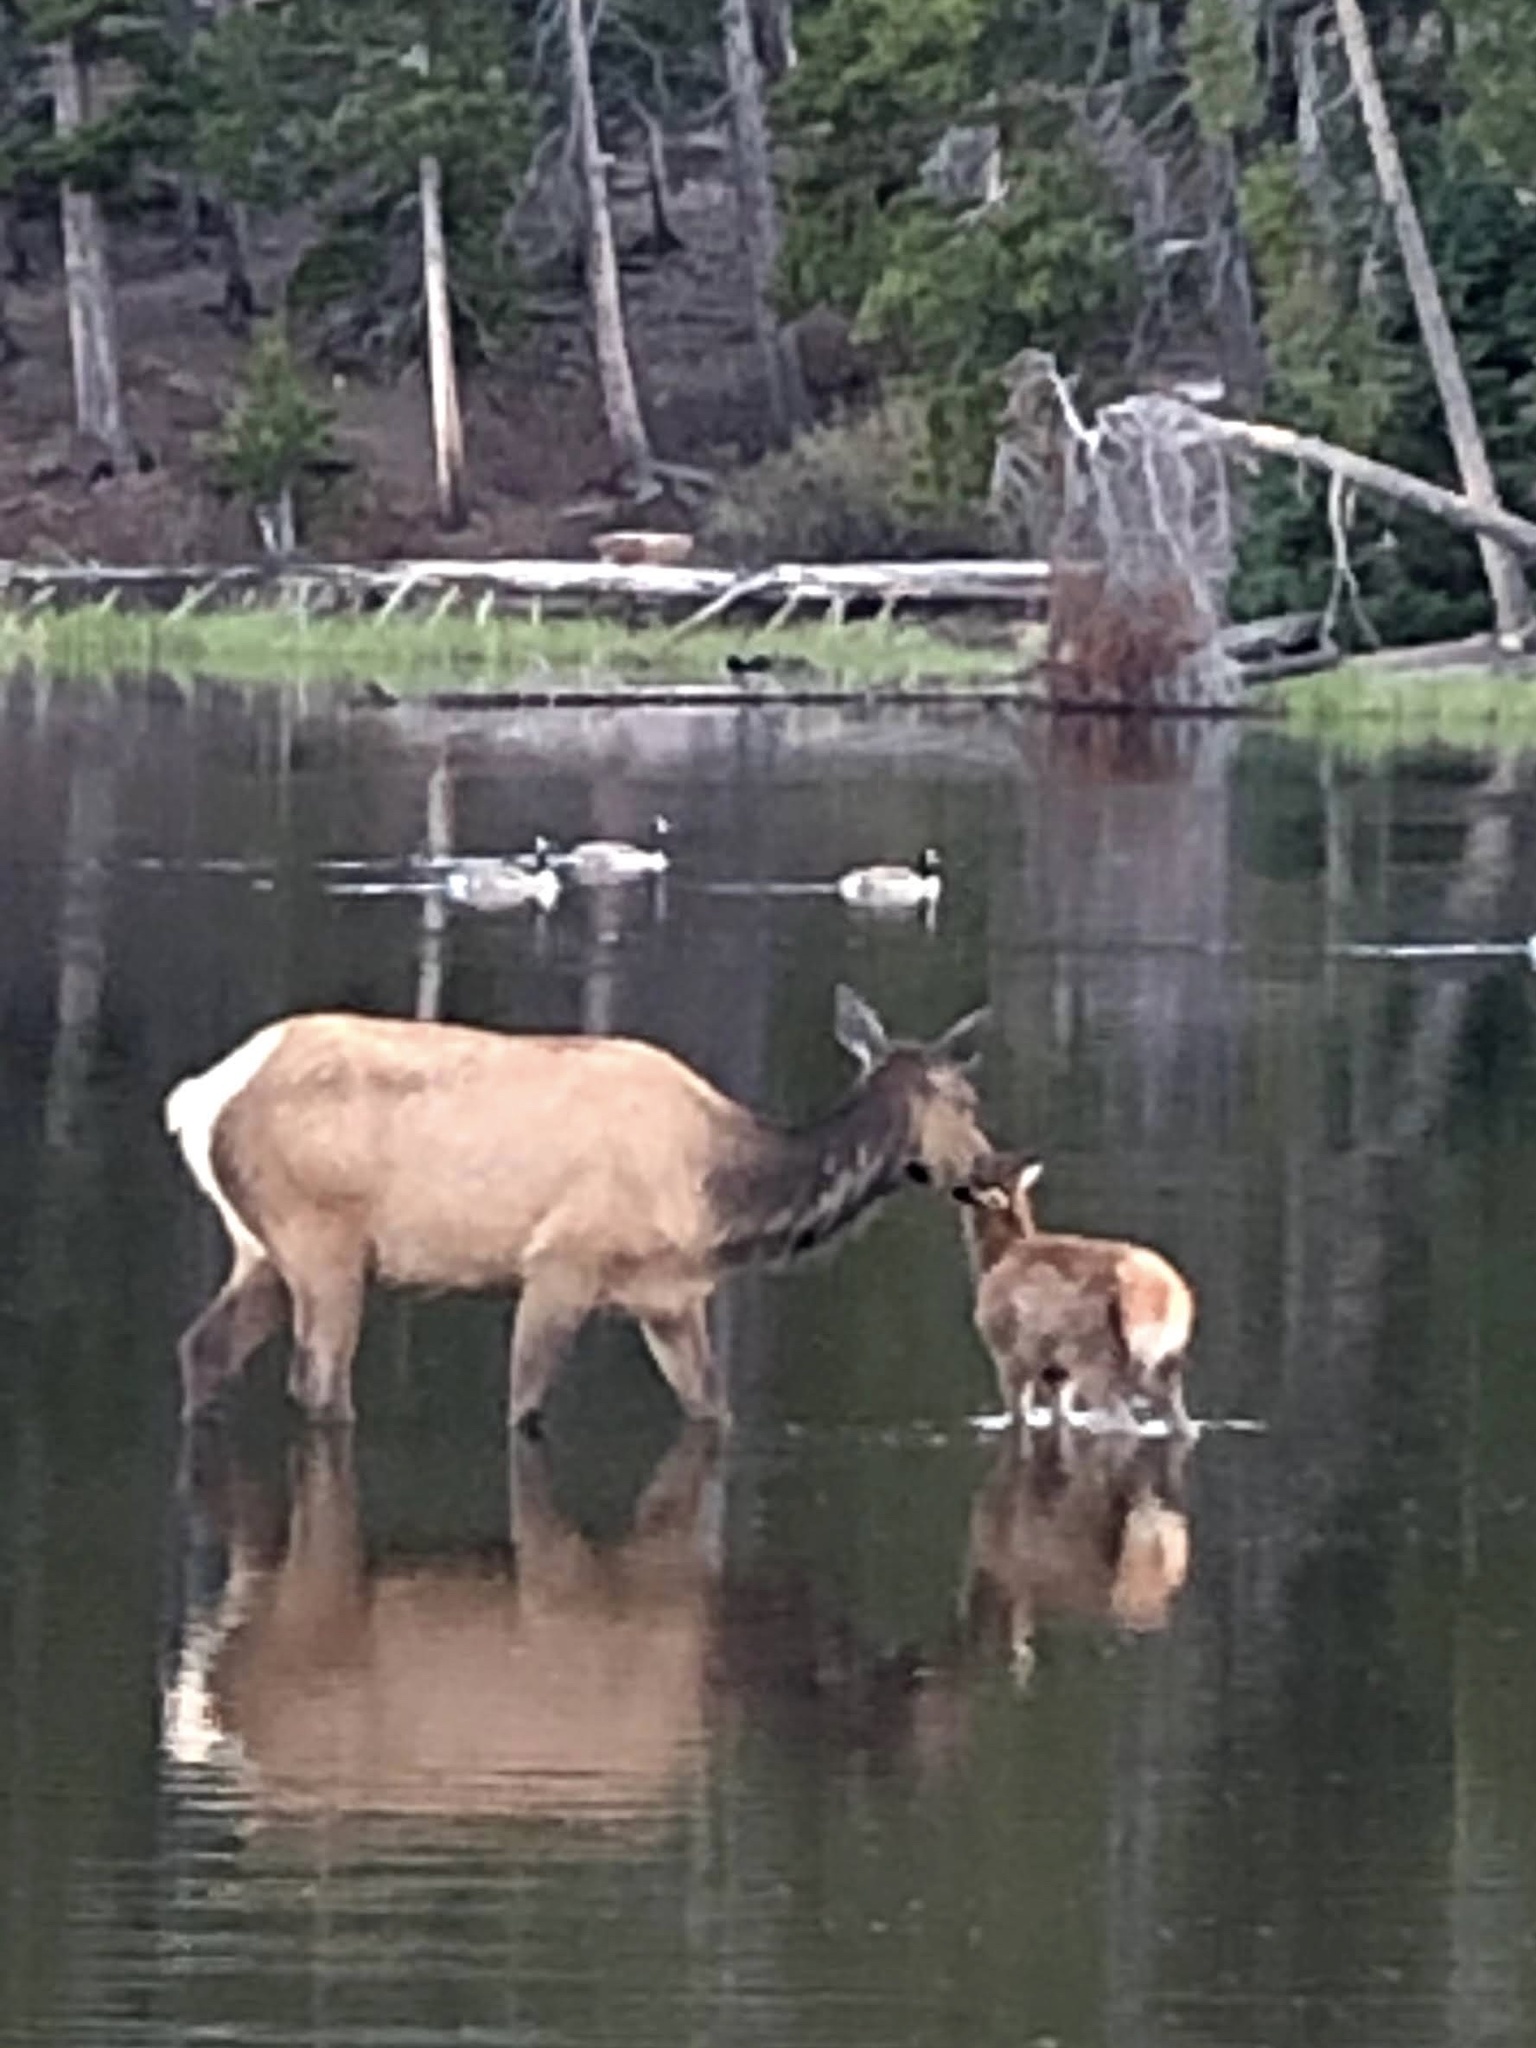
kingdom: Animalia
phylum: Chordata
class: Mammalia
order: Artiodactyla
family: Cervidae
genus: Cervus
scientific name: Cervus elaphus
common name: Red deer
